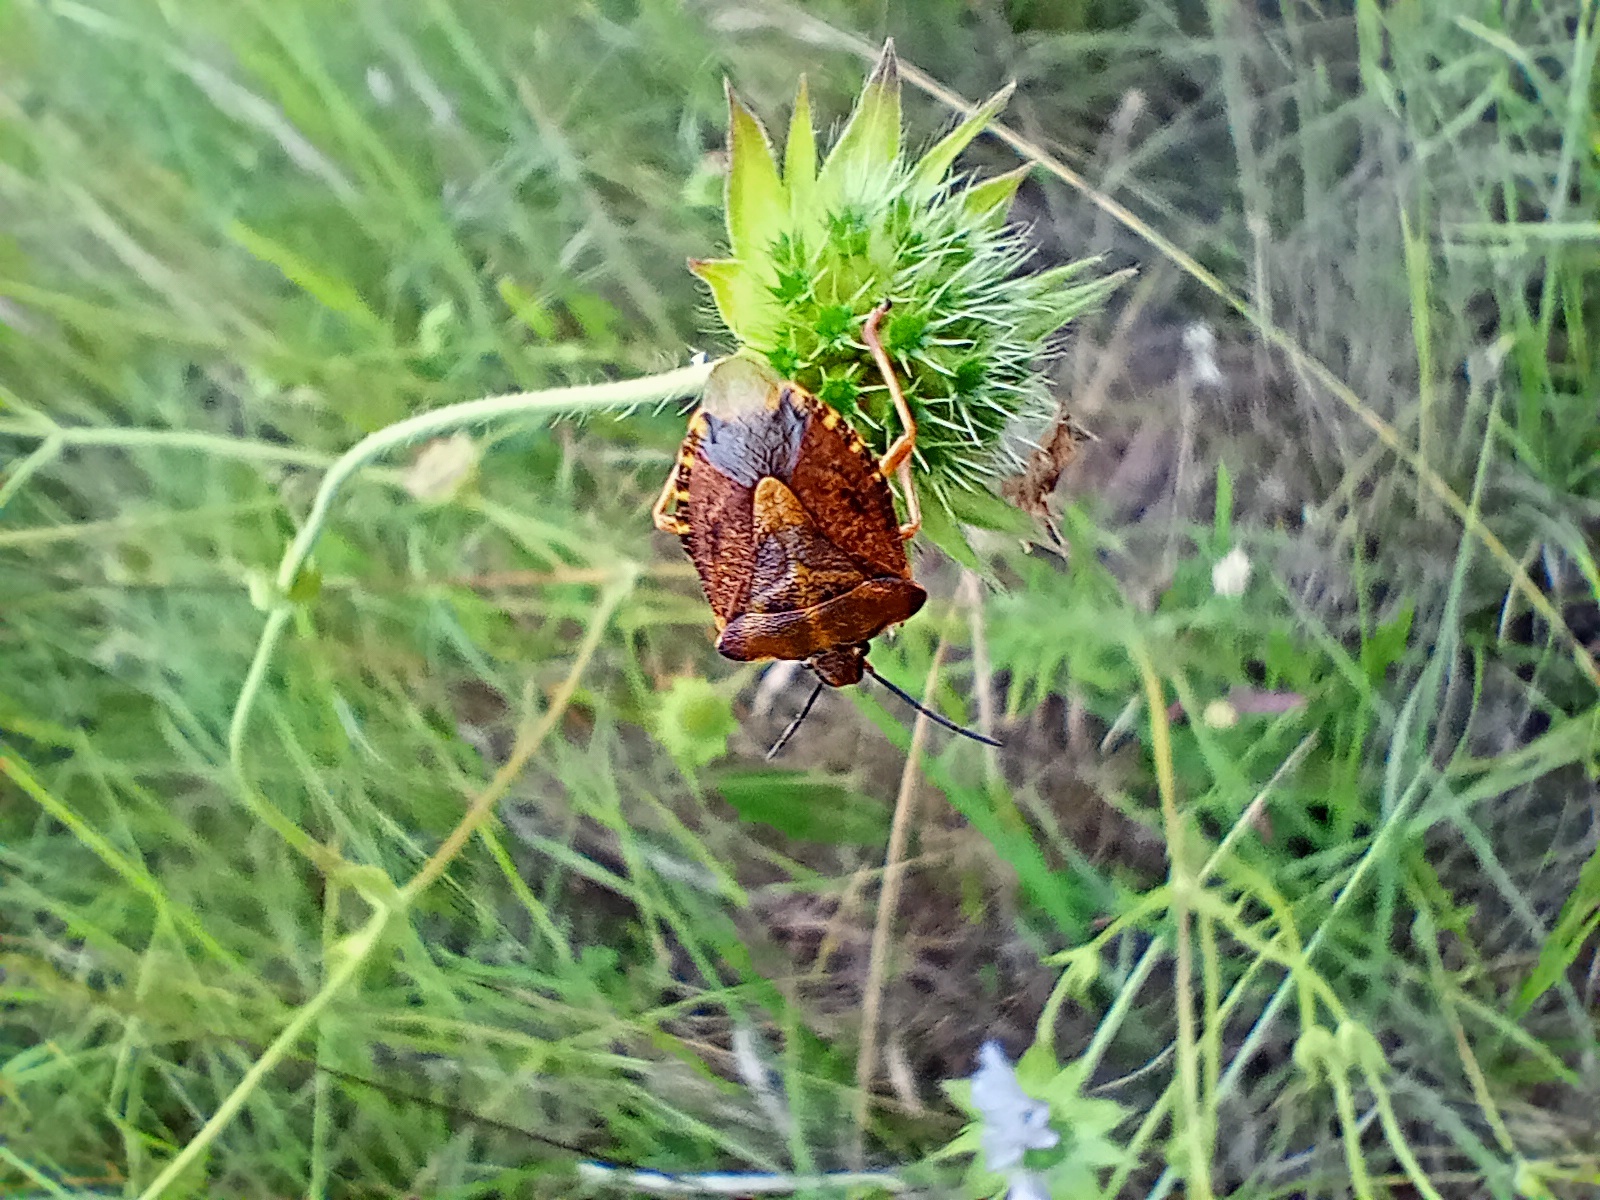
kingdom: Animalia
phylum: Arthropoda
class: Insecta
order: Hemiptera
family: Pentatomidae
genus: Carpocoris
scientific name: Carpocoris purpureipennis
